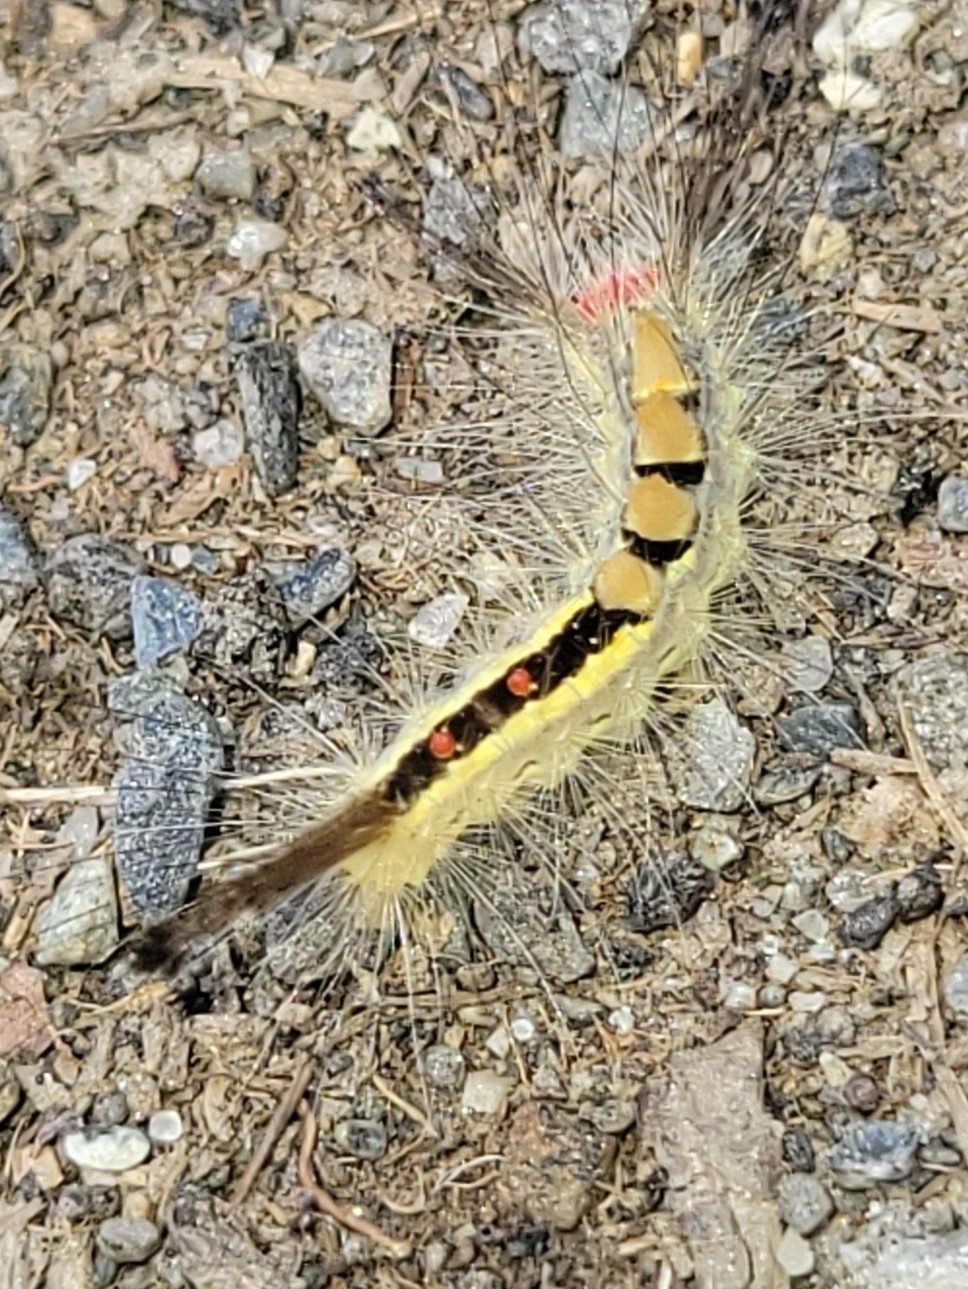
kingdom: Animalia
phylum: Arthropoda
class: Insecta
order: Lepidoptera
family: Erebidae
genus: Orgyia
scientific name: Orgyia leucostigma
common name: White-marked tussock moth
